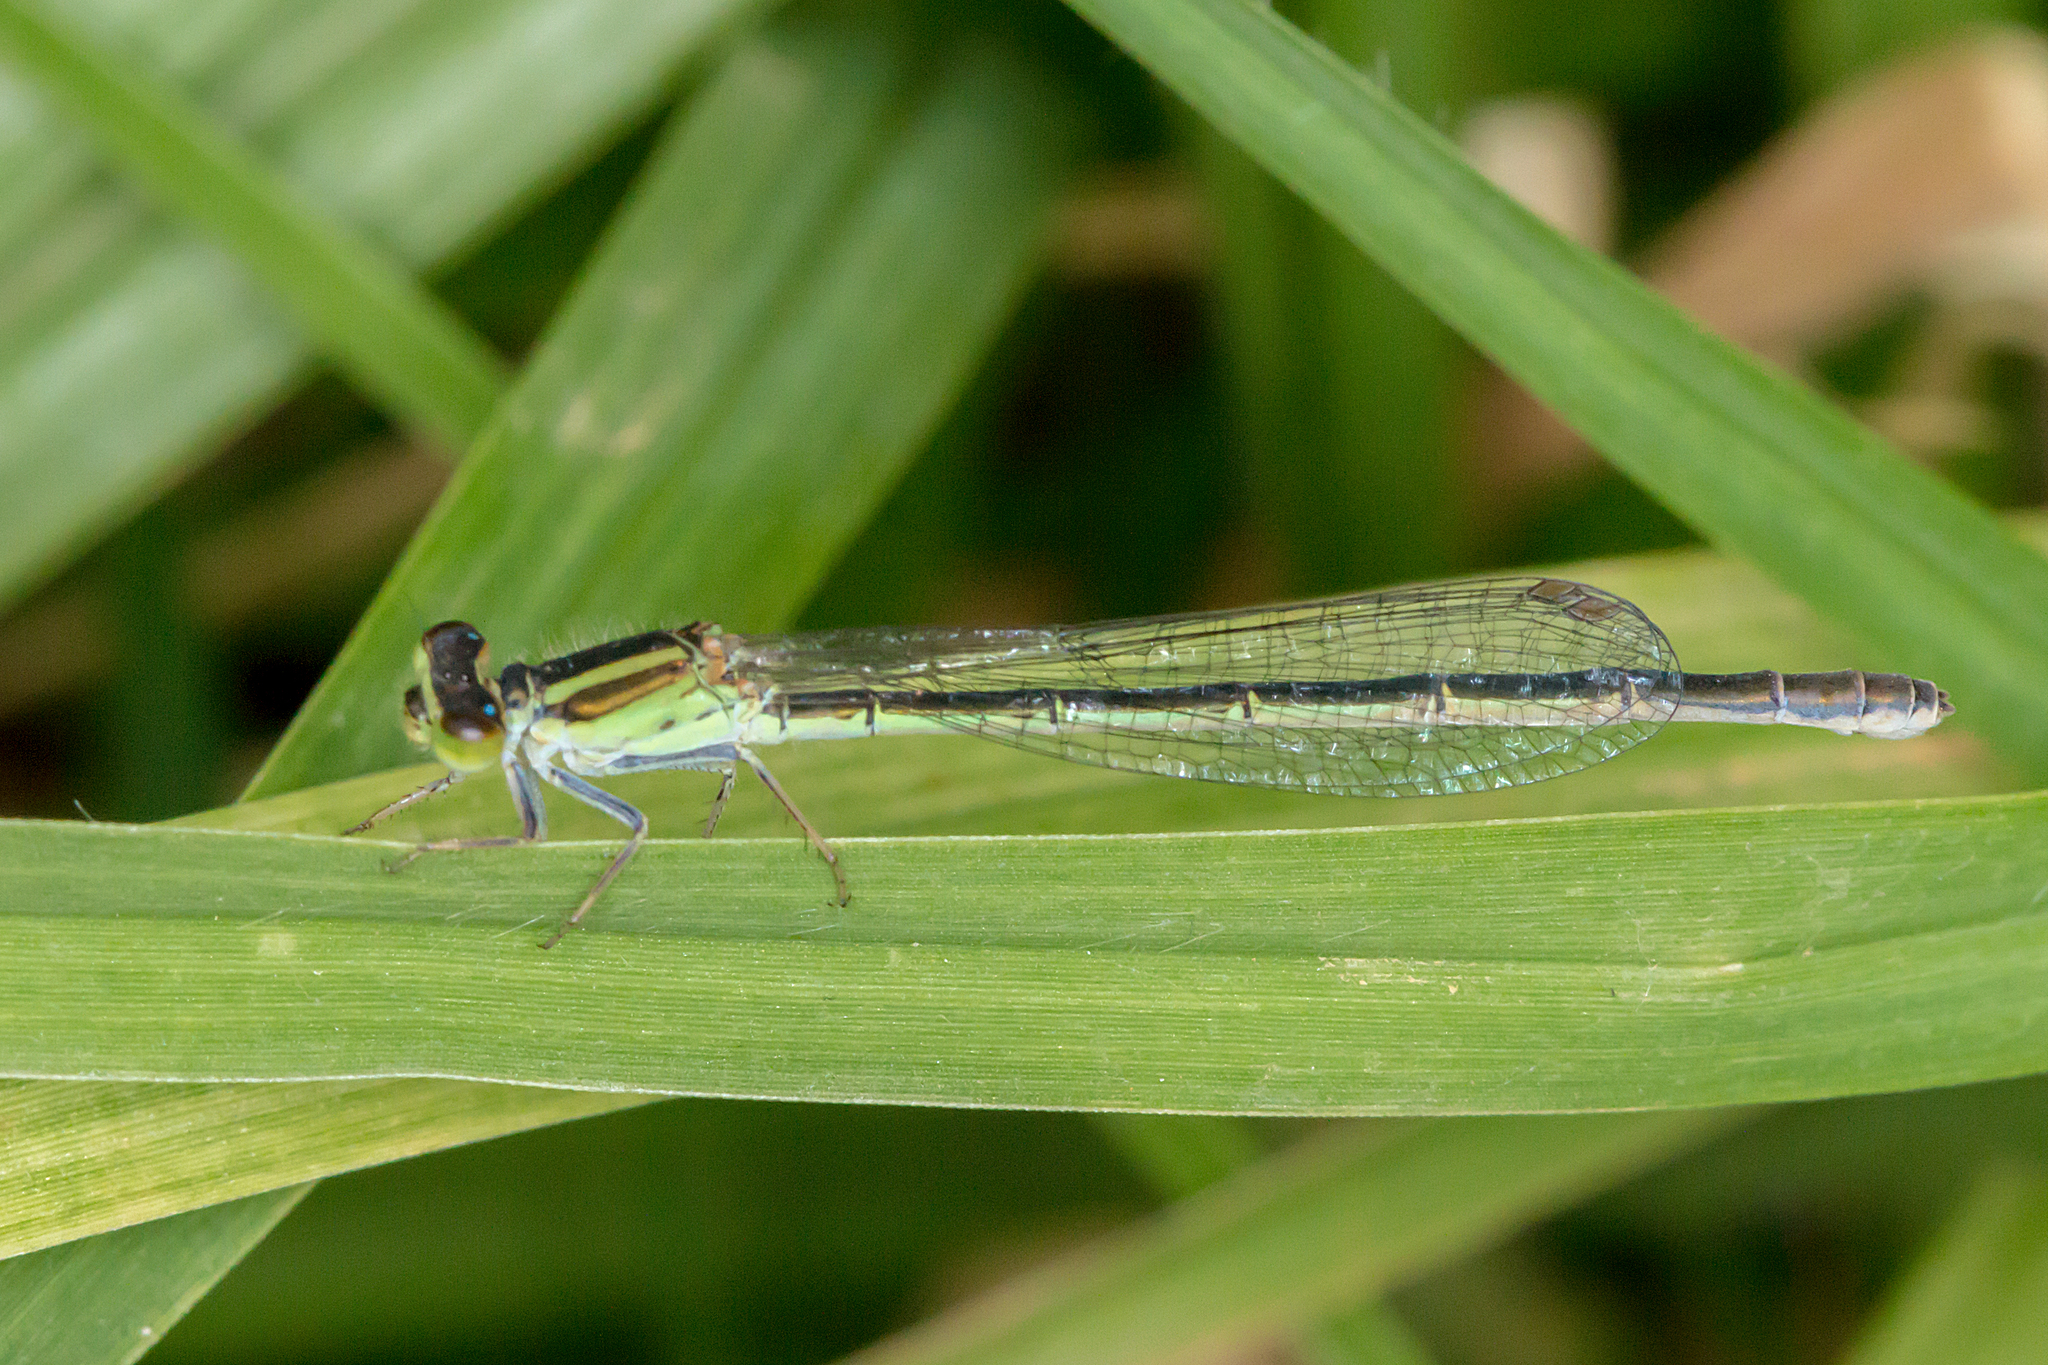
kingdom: Animalia
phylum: Arthropoda
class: Insecta
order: Odonata
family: Coenagrionidae
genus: Ischnura
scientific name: Ischnura aurora
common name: Gossamer damselfly
